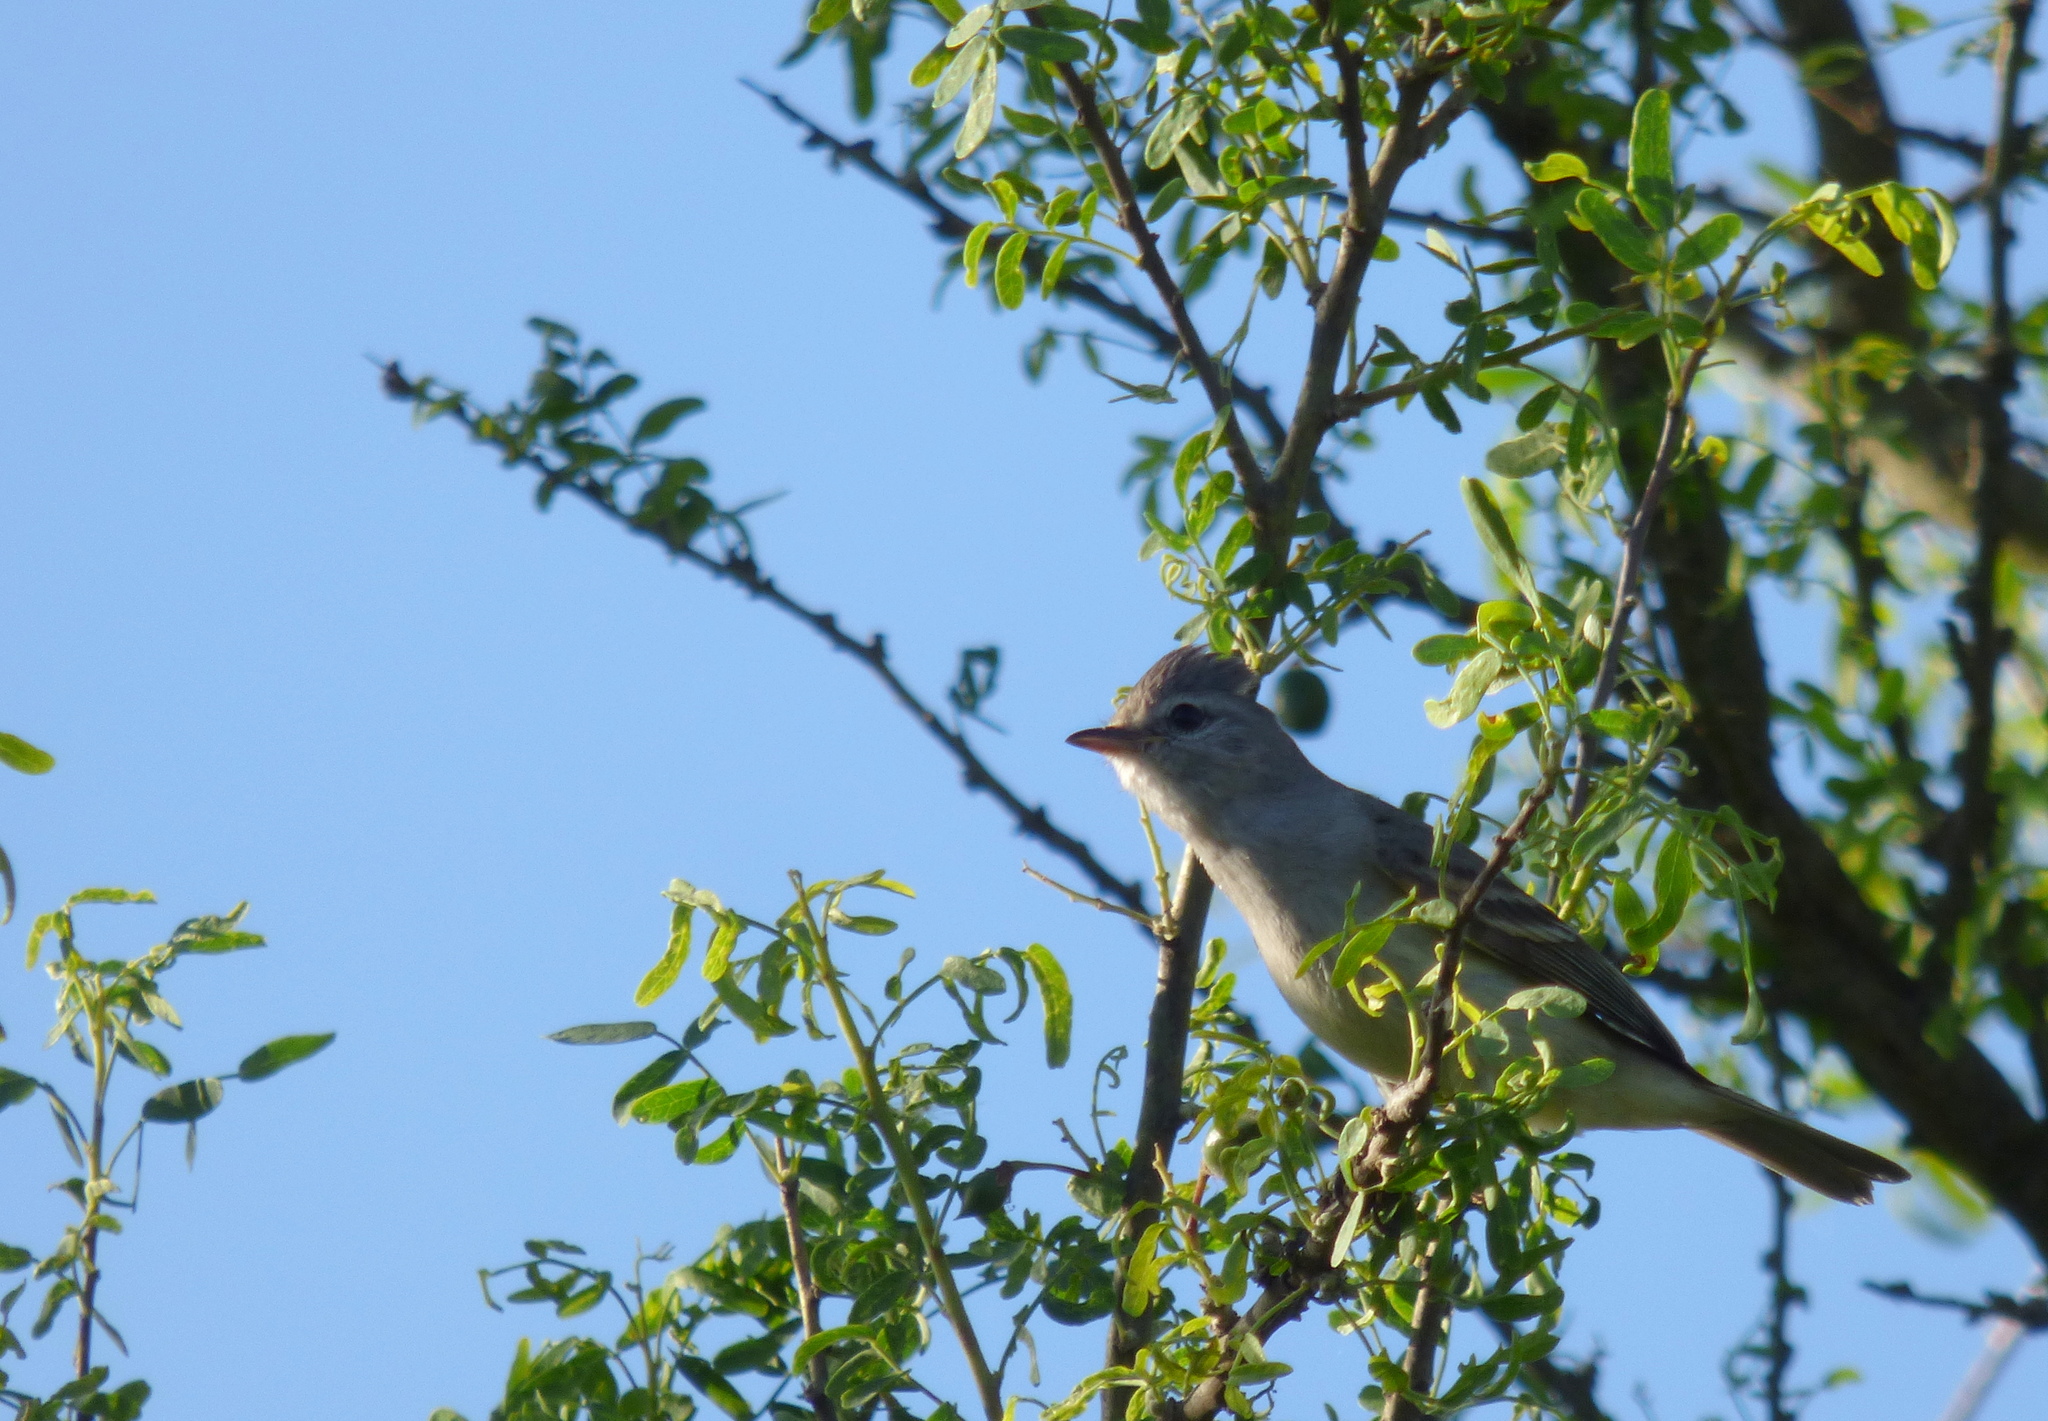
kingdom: Animalia
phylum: Chordata
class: Aves
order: Passeriformes
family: Tyrannidae
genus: Camptostoma
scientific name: Camptostoma obsoletum
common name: Southern beardless-tyrannulet
